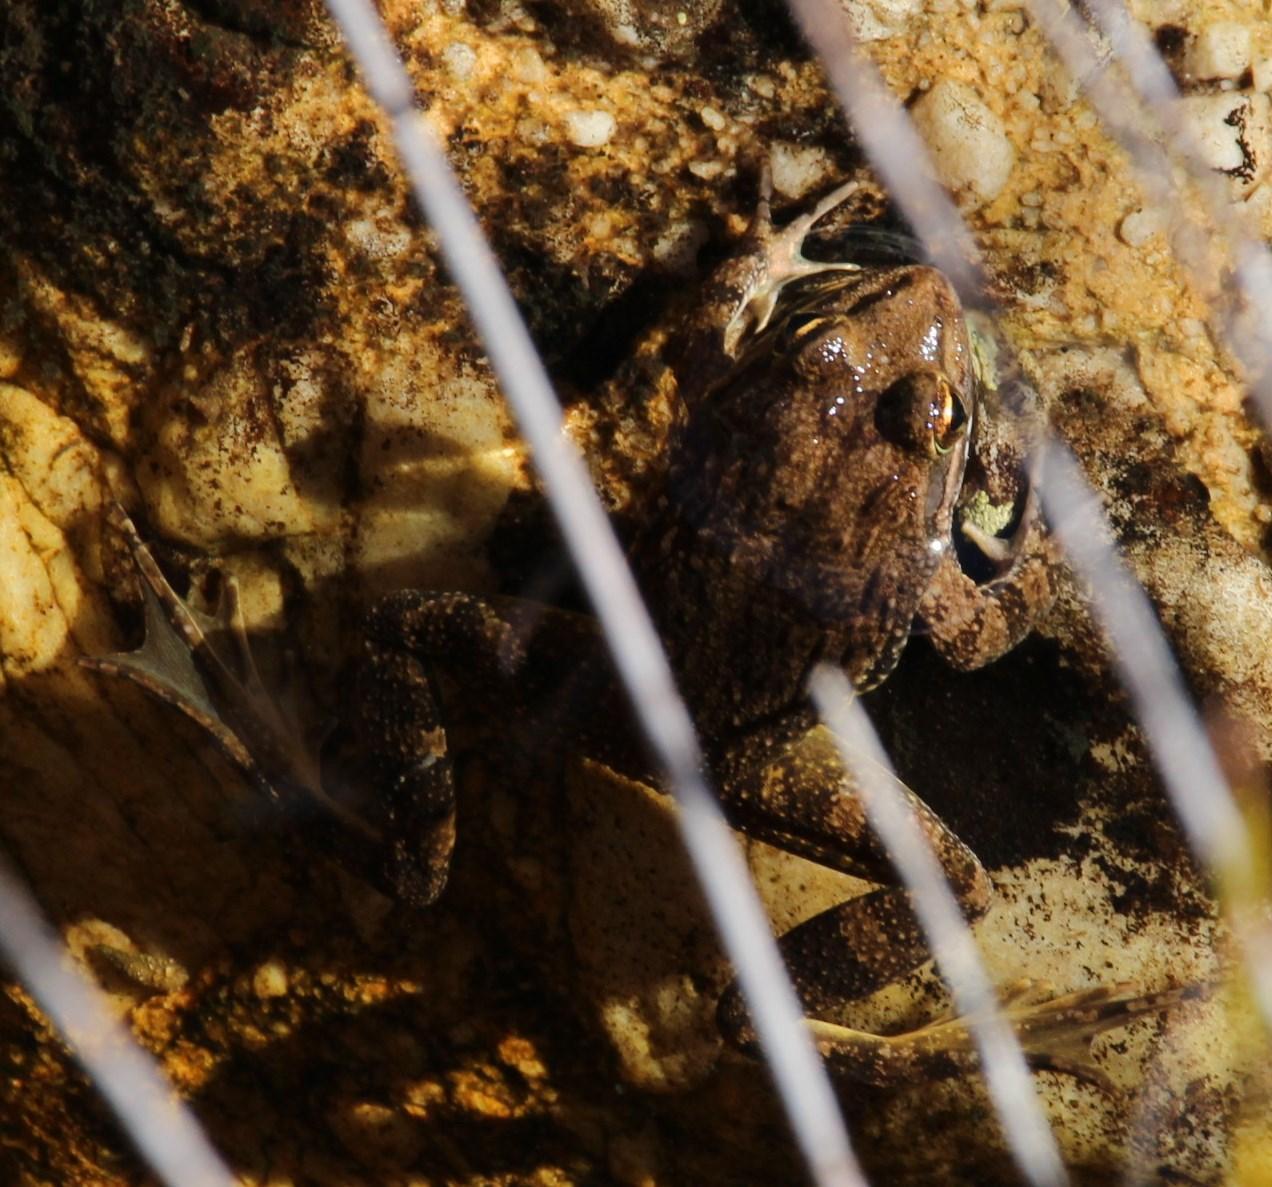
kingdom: Animalia
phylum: Chordata
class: Amphibia
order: Anura
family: Pyxicephalidae
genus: Amietia
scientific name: Amietia fuscigula
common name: Cape rana
